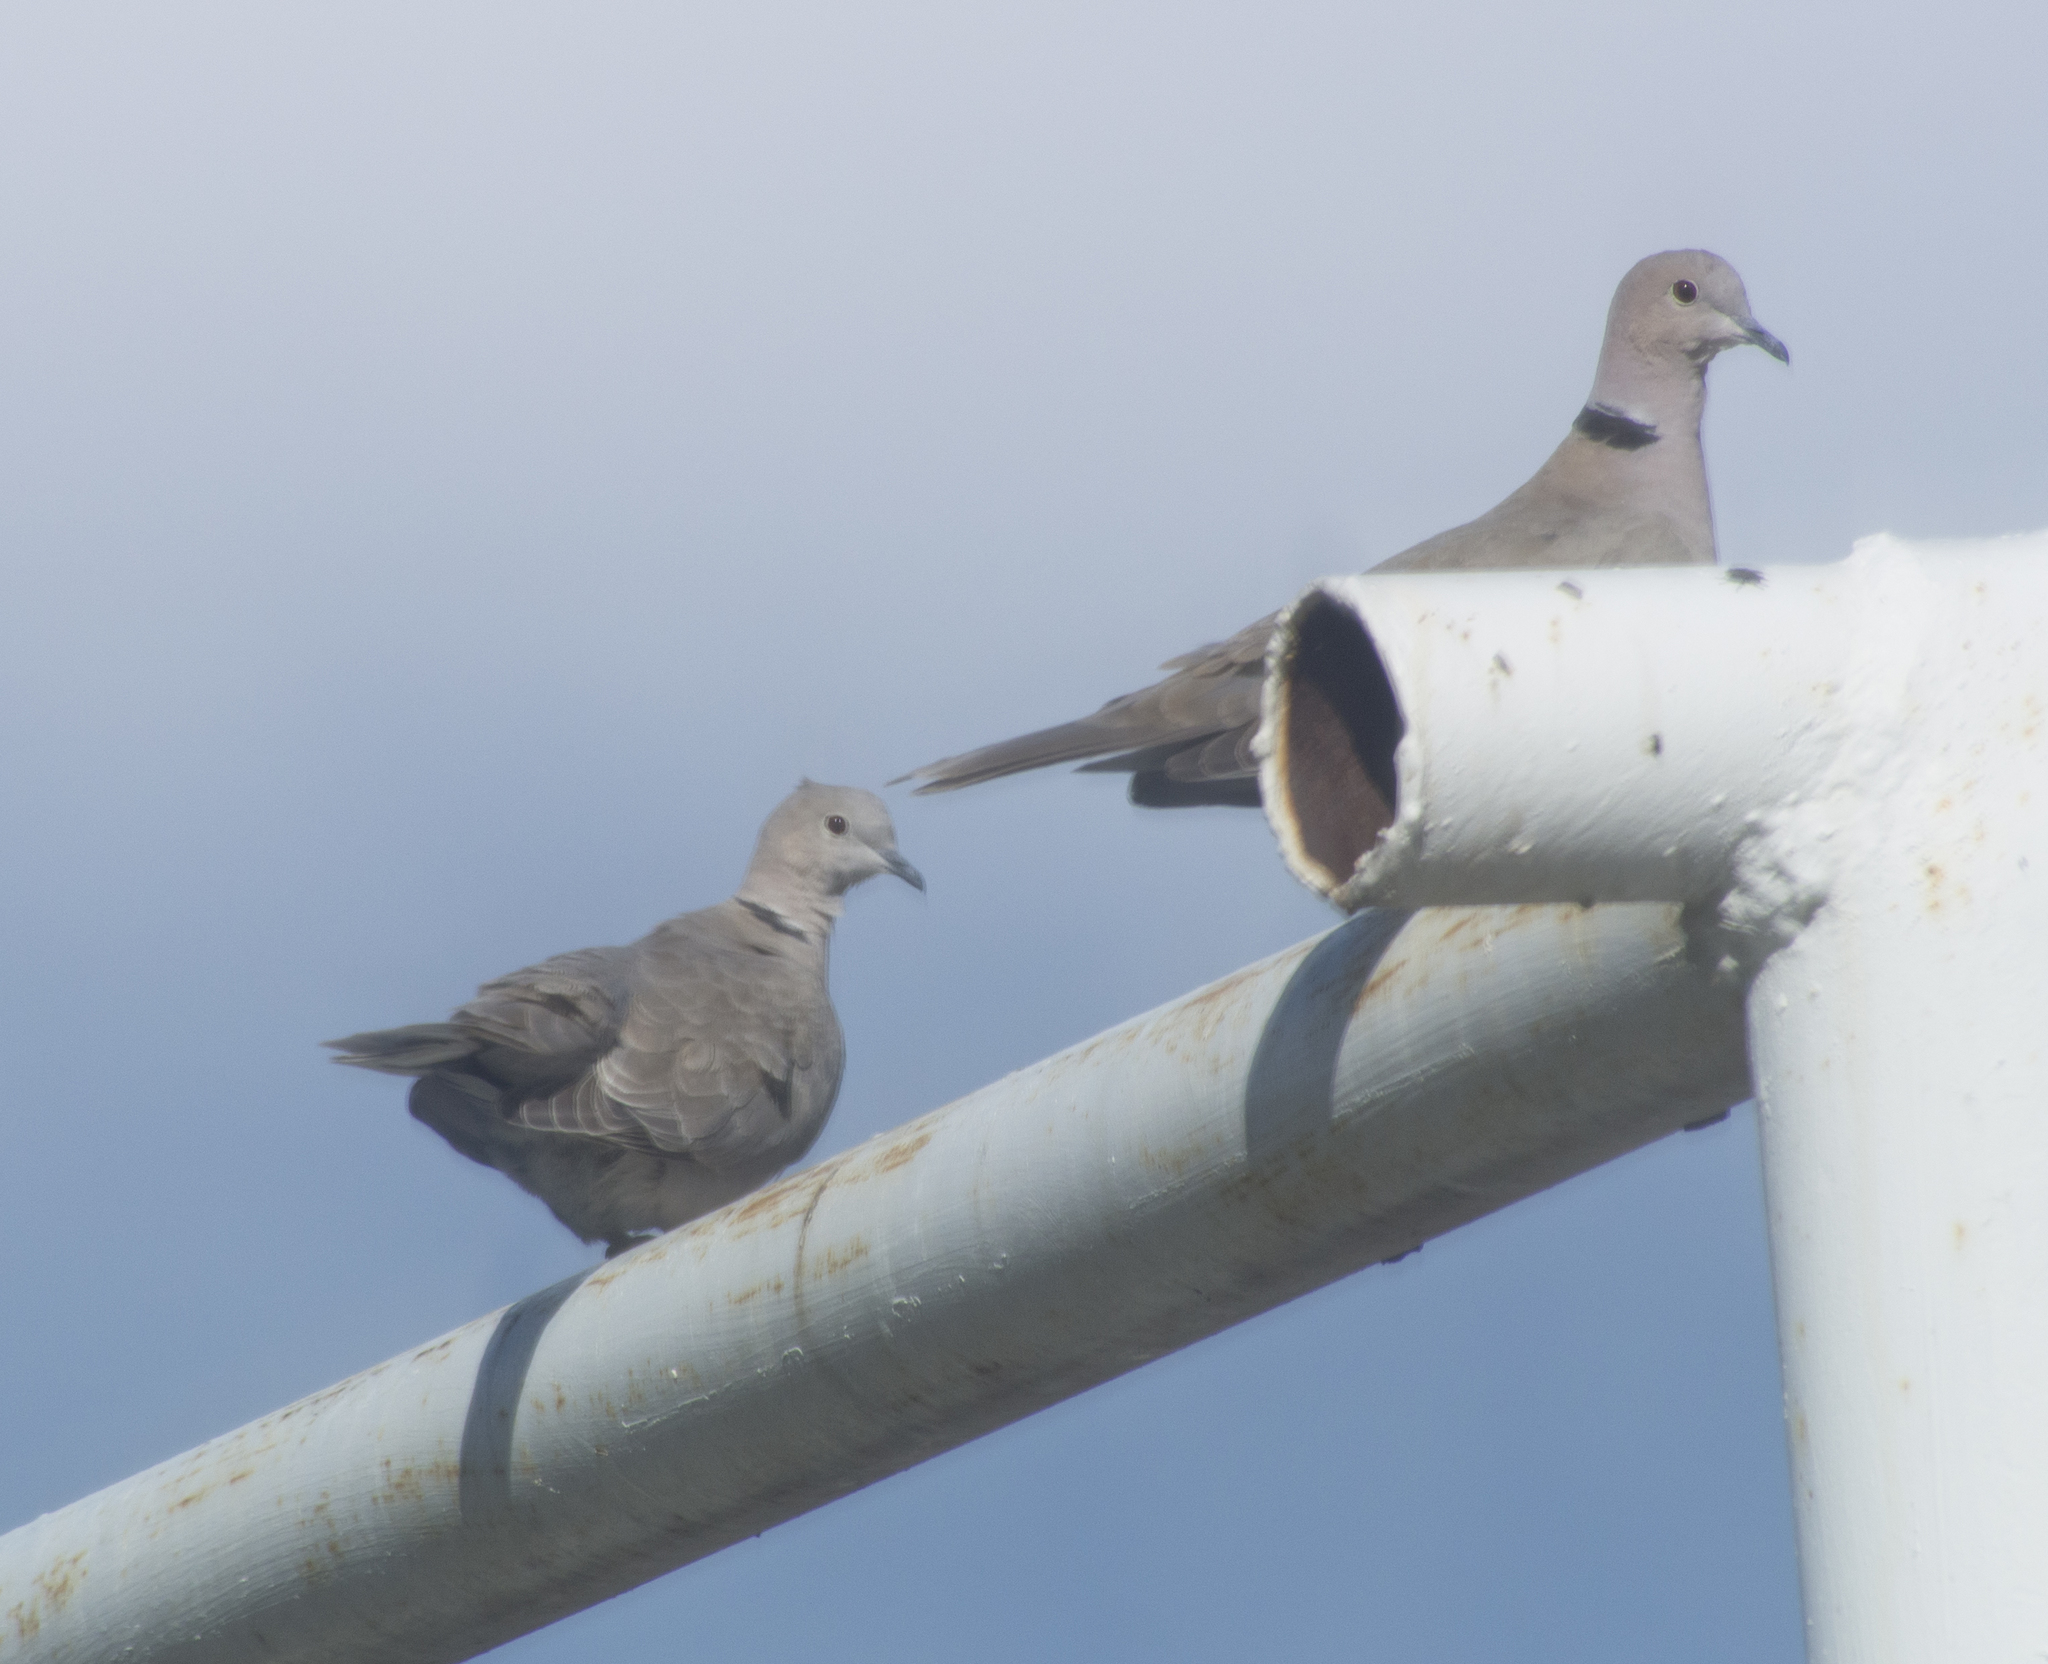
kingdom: Animalia
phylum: Chordata
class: Aves
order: Columbiformes
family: Columbidae
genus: Streptopelia
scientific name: Streptopelia decaocto
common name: Eurasian collared dove
